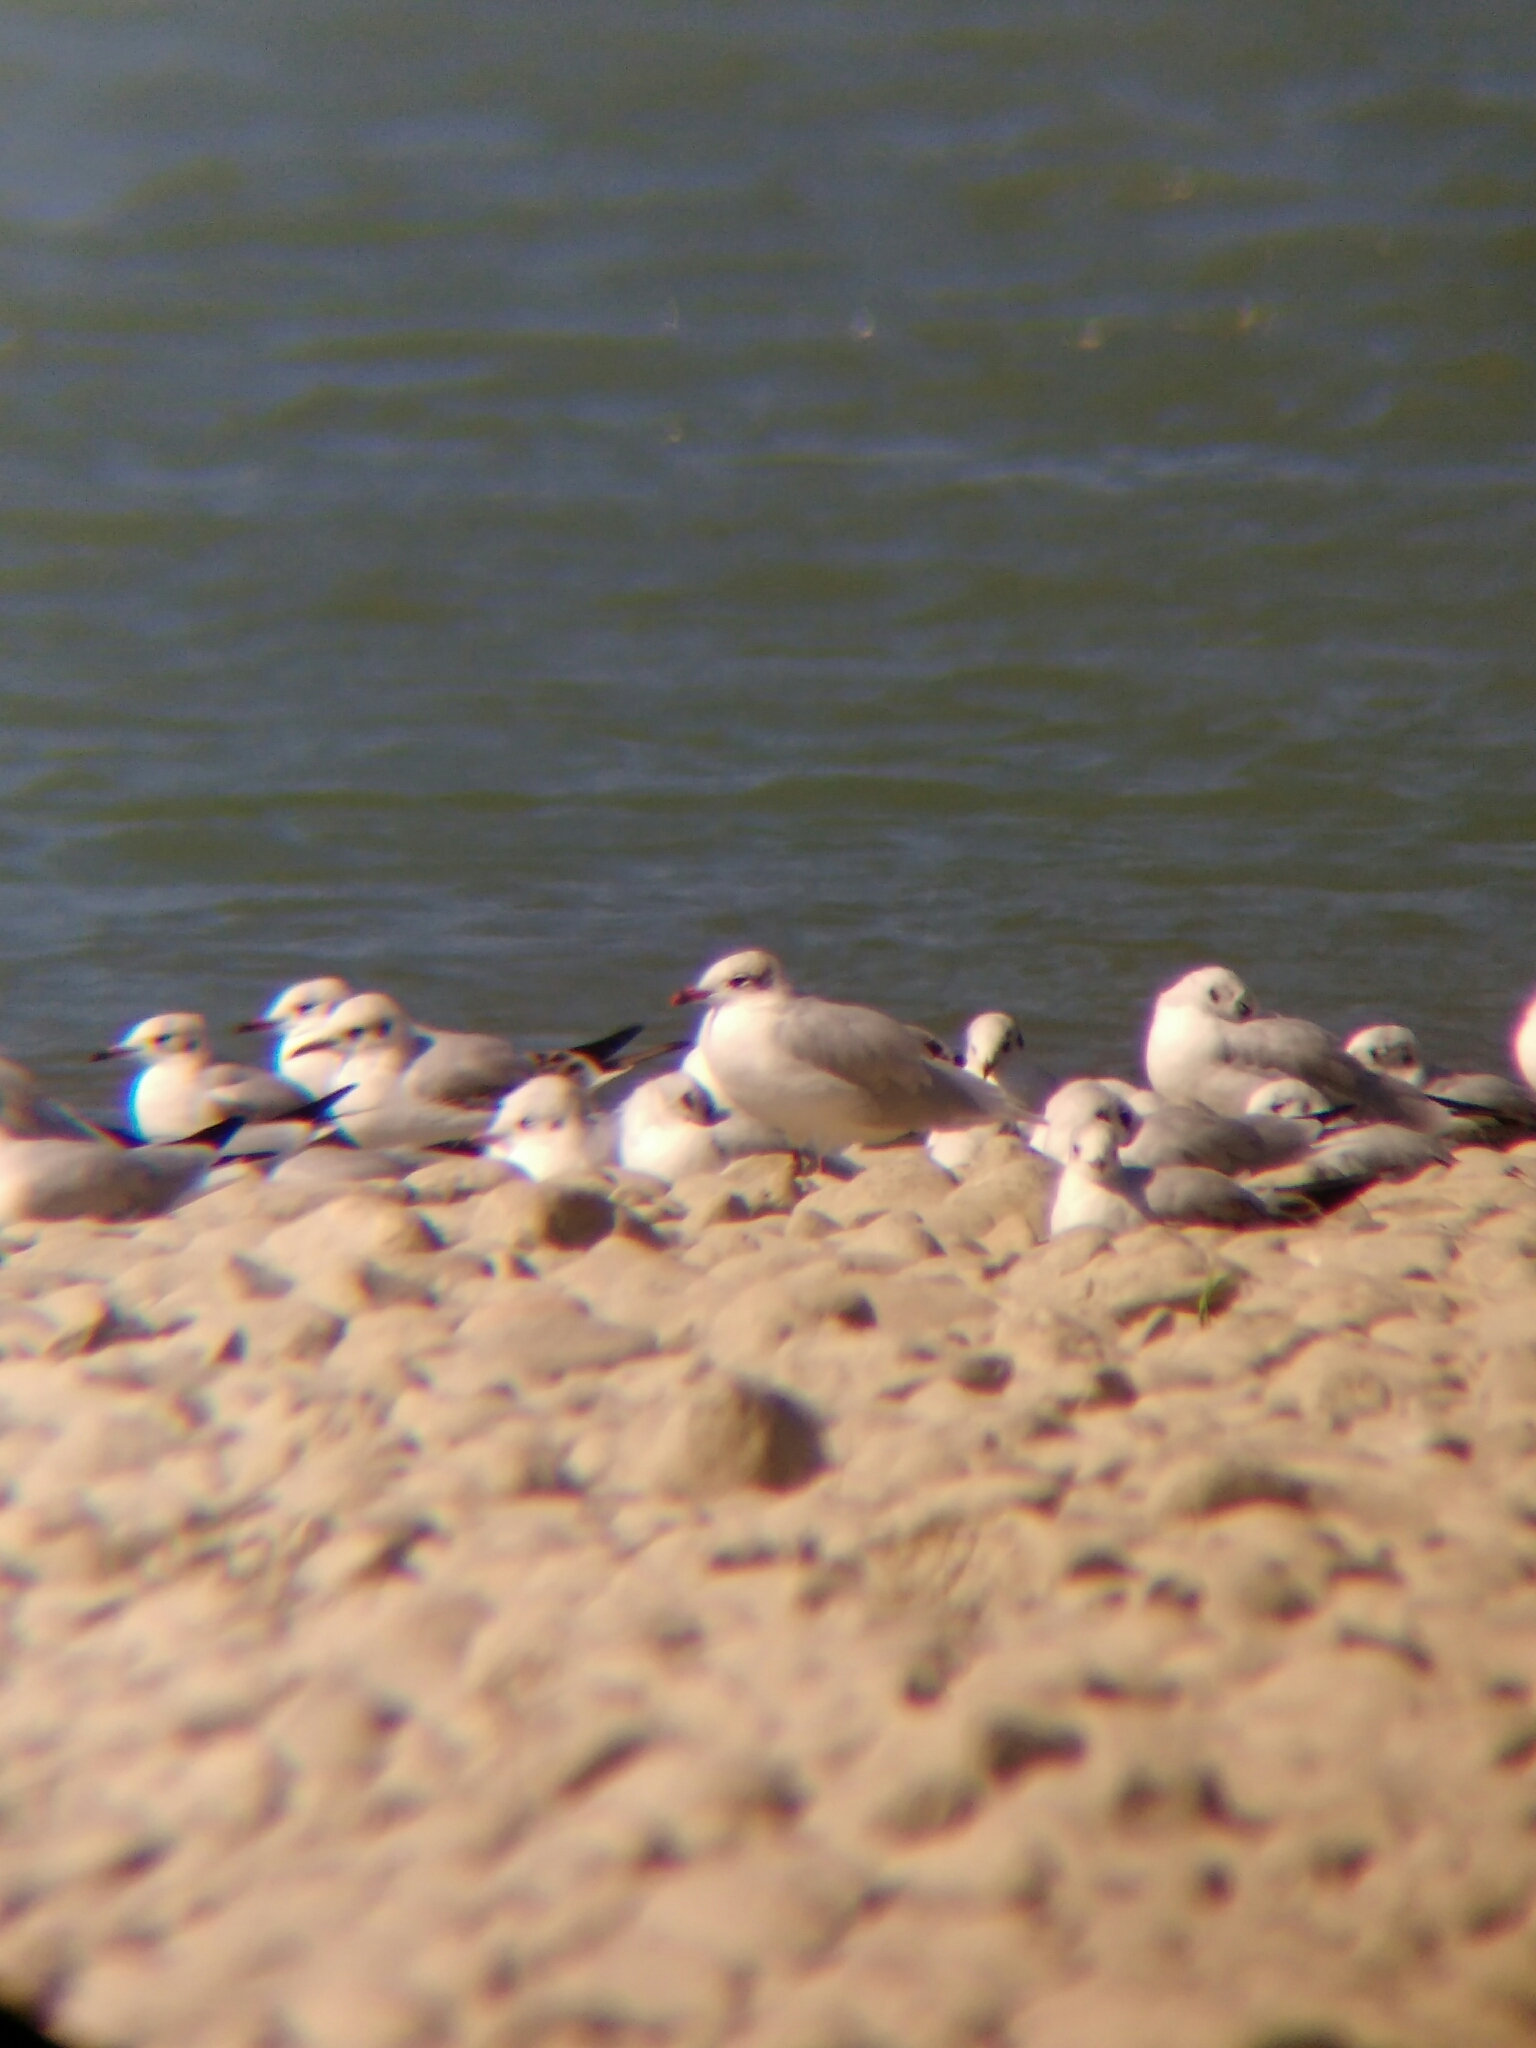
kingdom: Animalia
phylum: Chordata
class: Aves
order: Charadriiformes
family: Laridae
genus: Ichthyaetus
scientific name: Ichthyaetus melanocephalus
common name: Mediterranean gull
